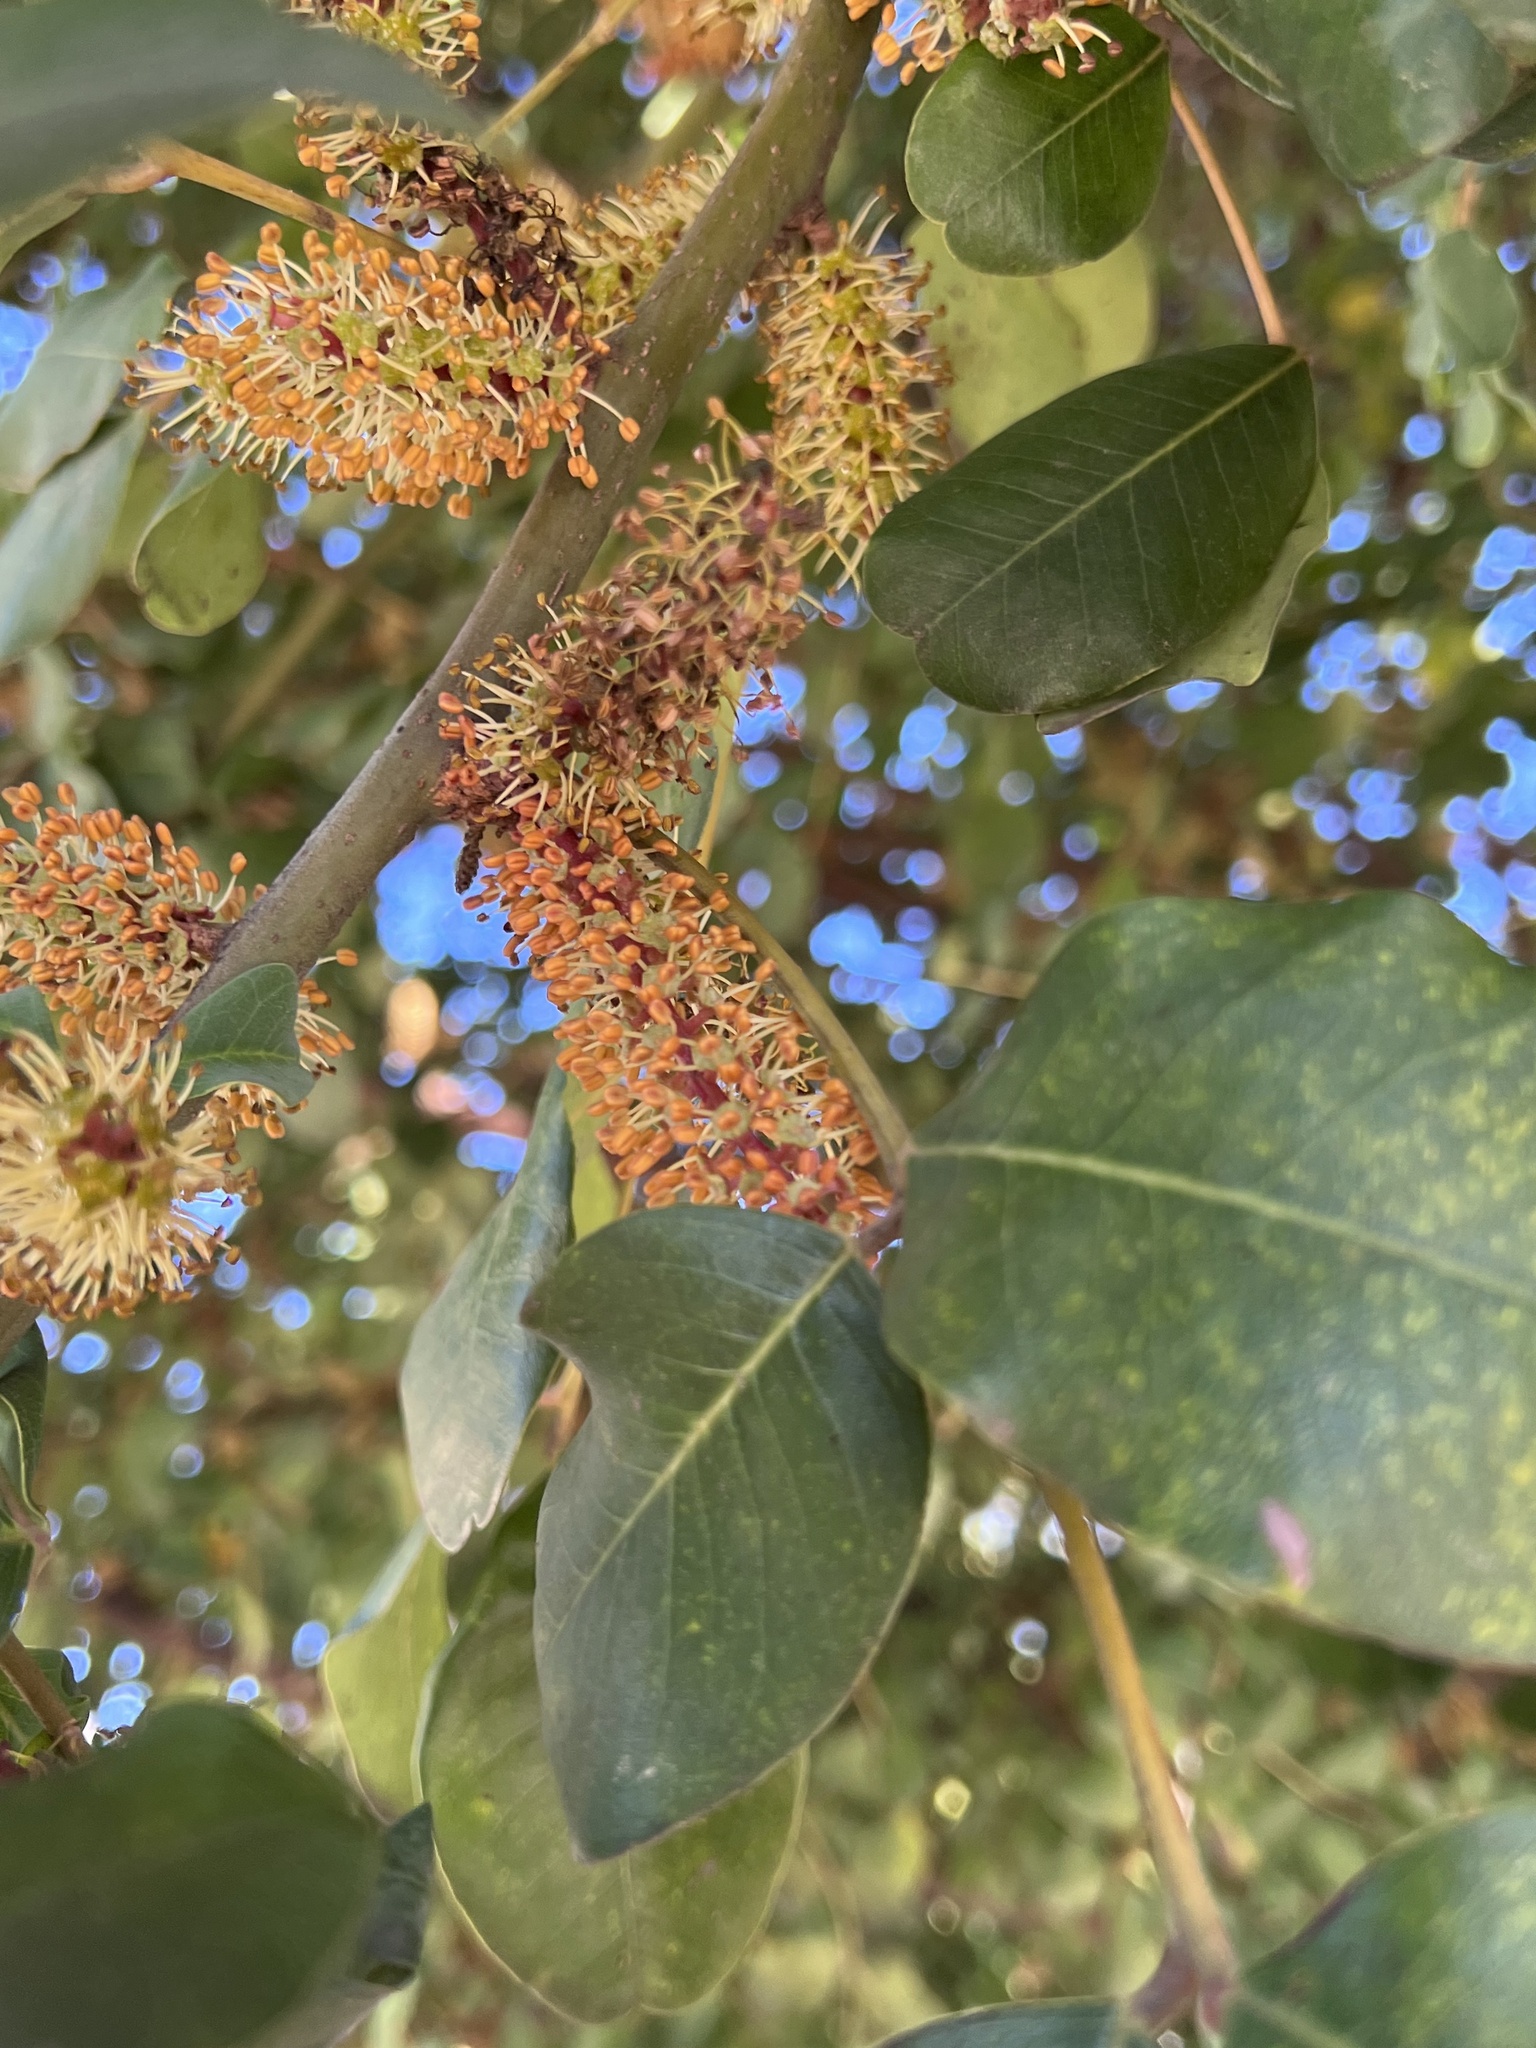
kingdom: Plantae
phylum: Tracheophyta
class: Magnoliopsida
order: Fabales
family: Fabaceae
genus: Ceratonia
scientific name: Ceratonia siliqua
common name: Carob
